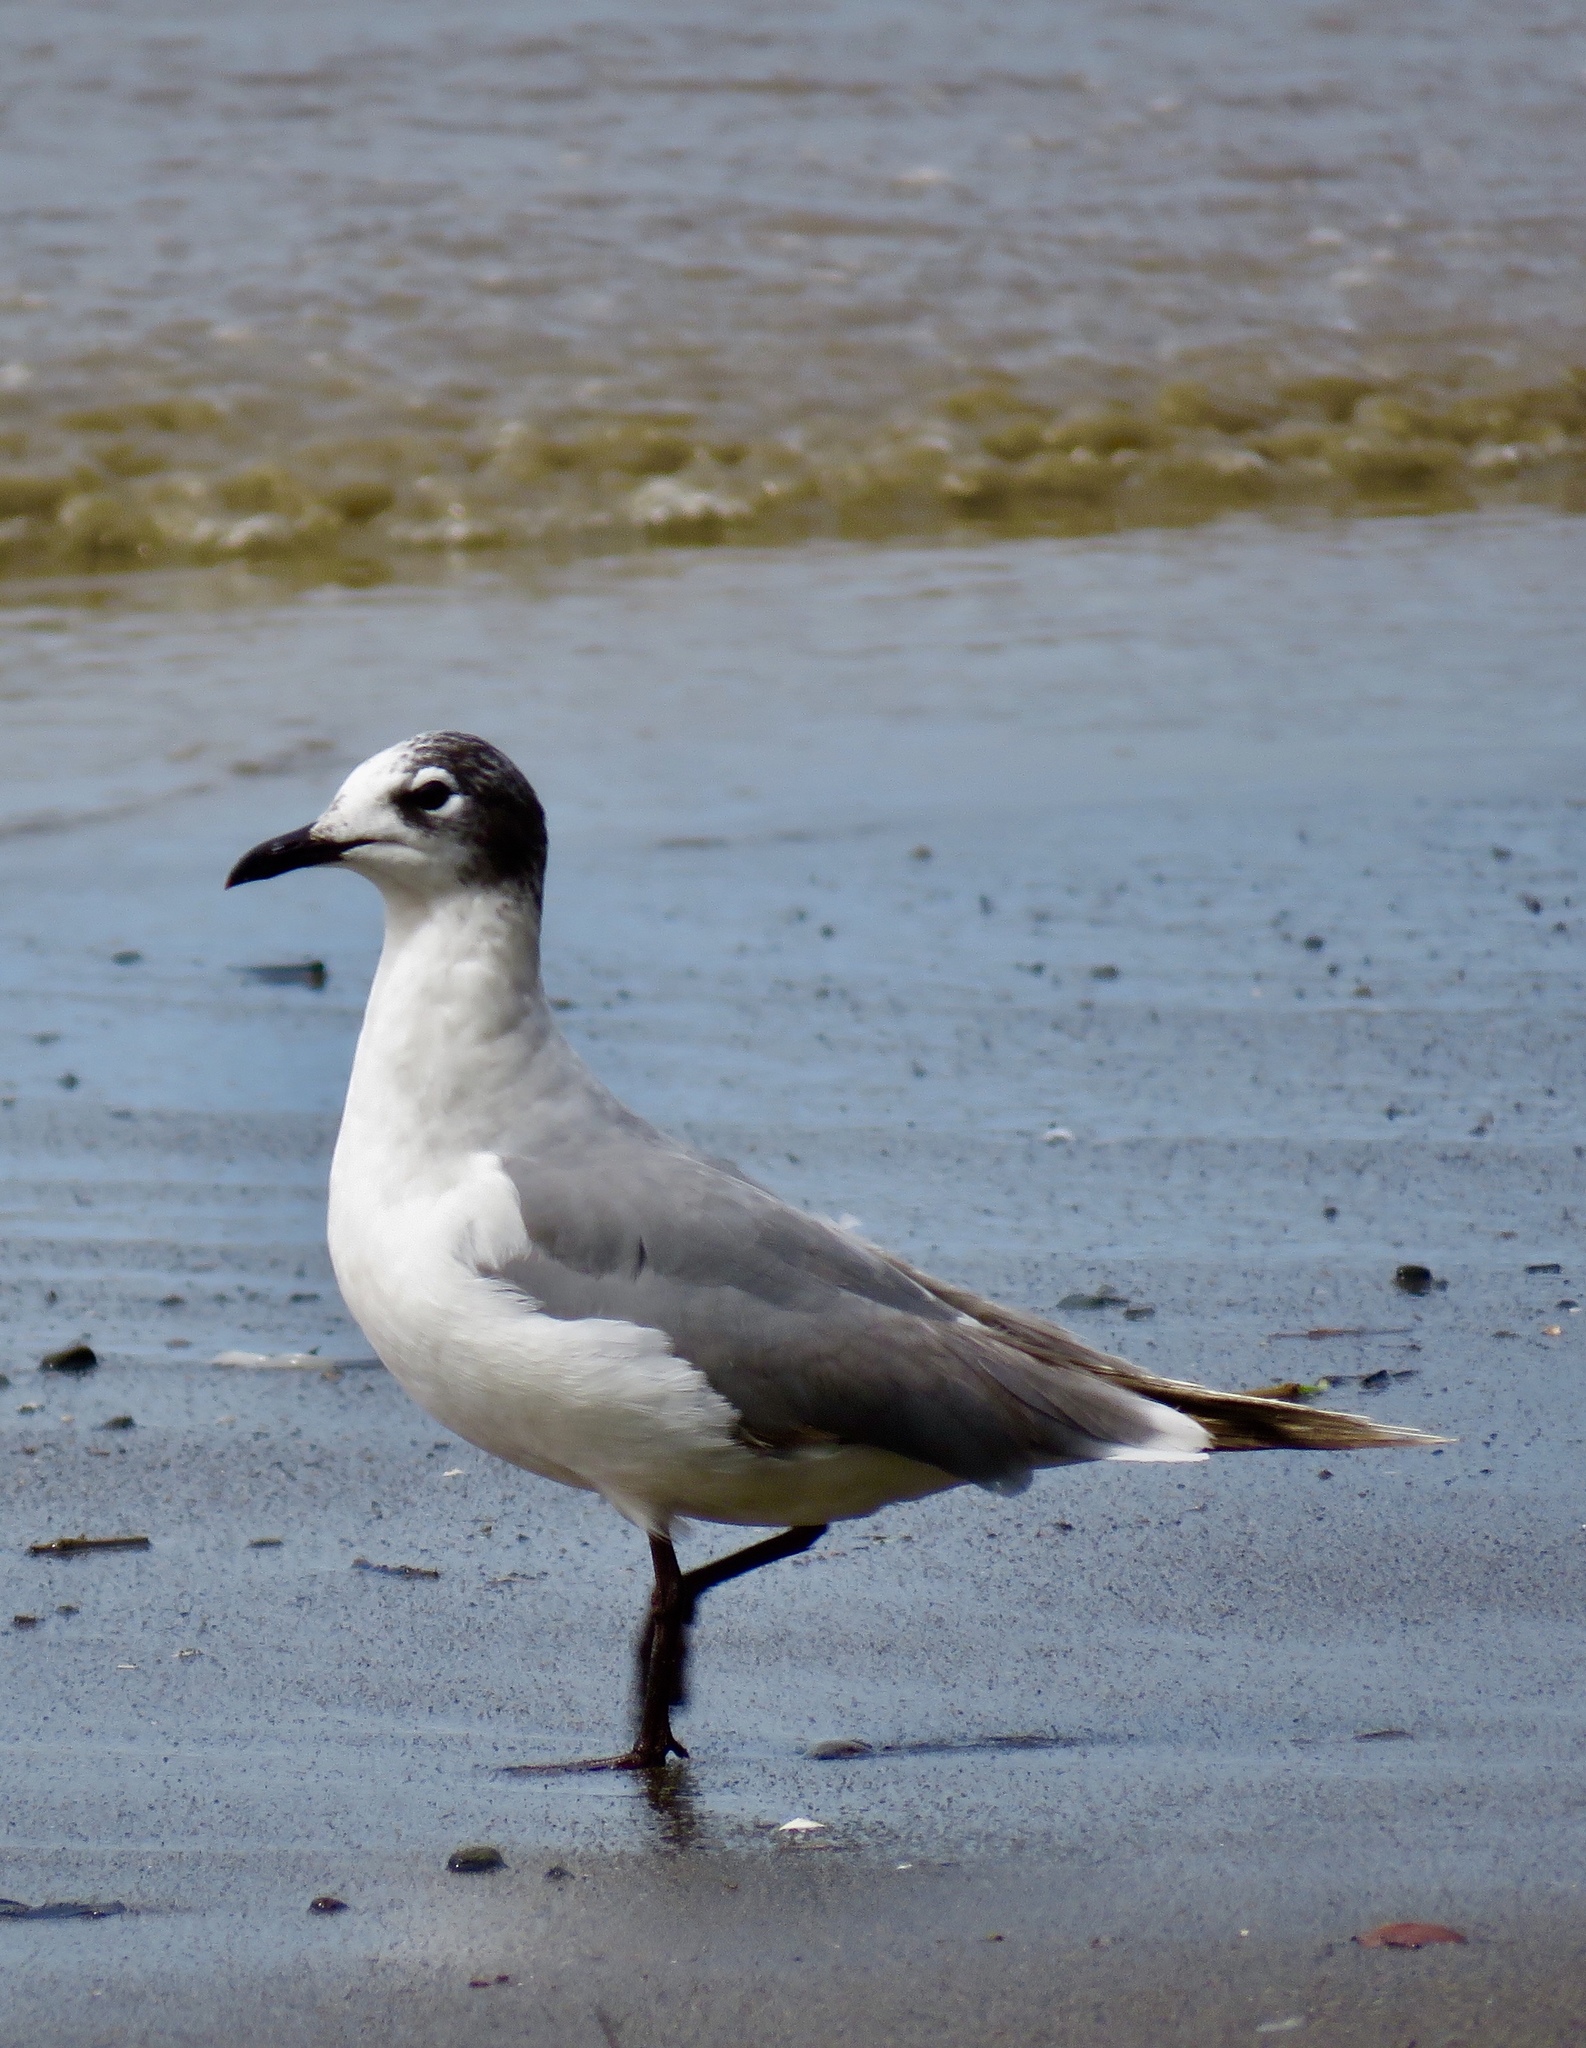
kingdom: Animalia
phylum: Chordata
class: Aves
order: Charadriiformes
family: Laridae
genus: Leucophaeus
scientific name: Leucophaeus pipixcan
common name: Franklin's gull
